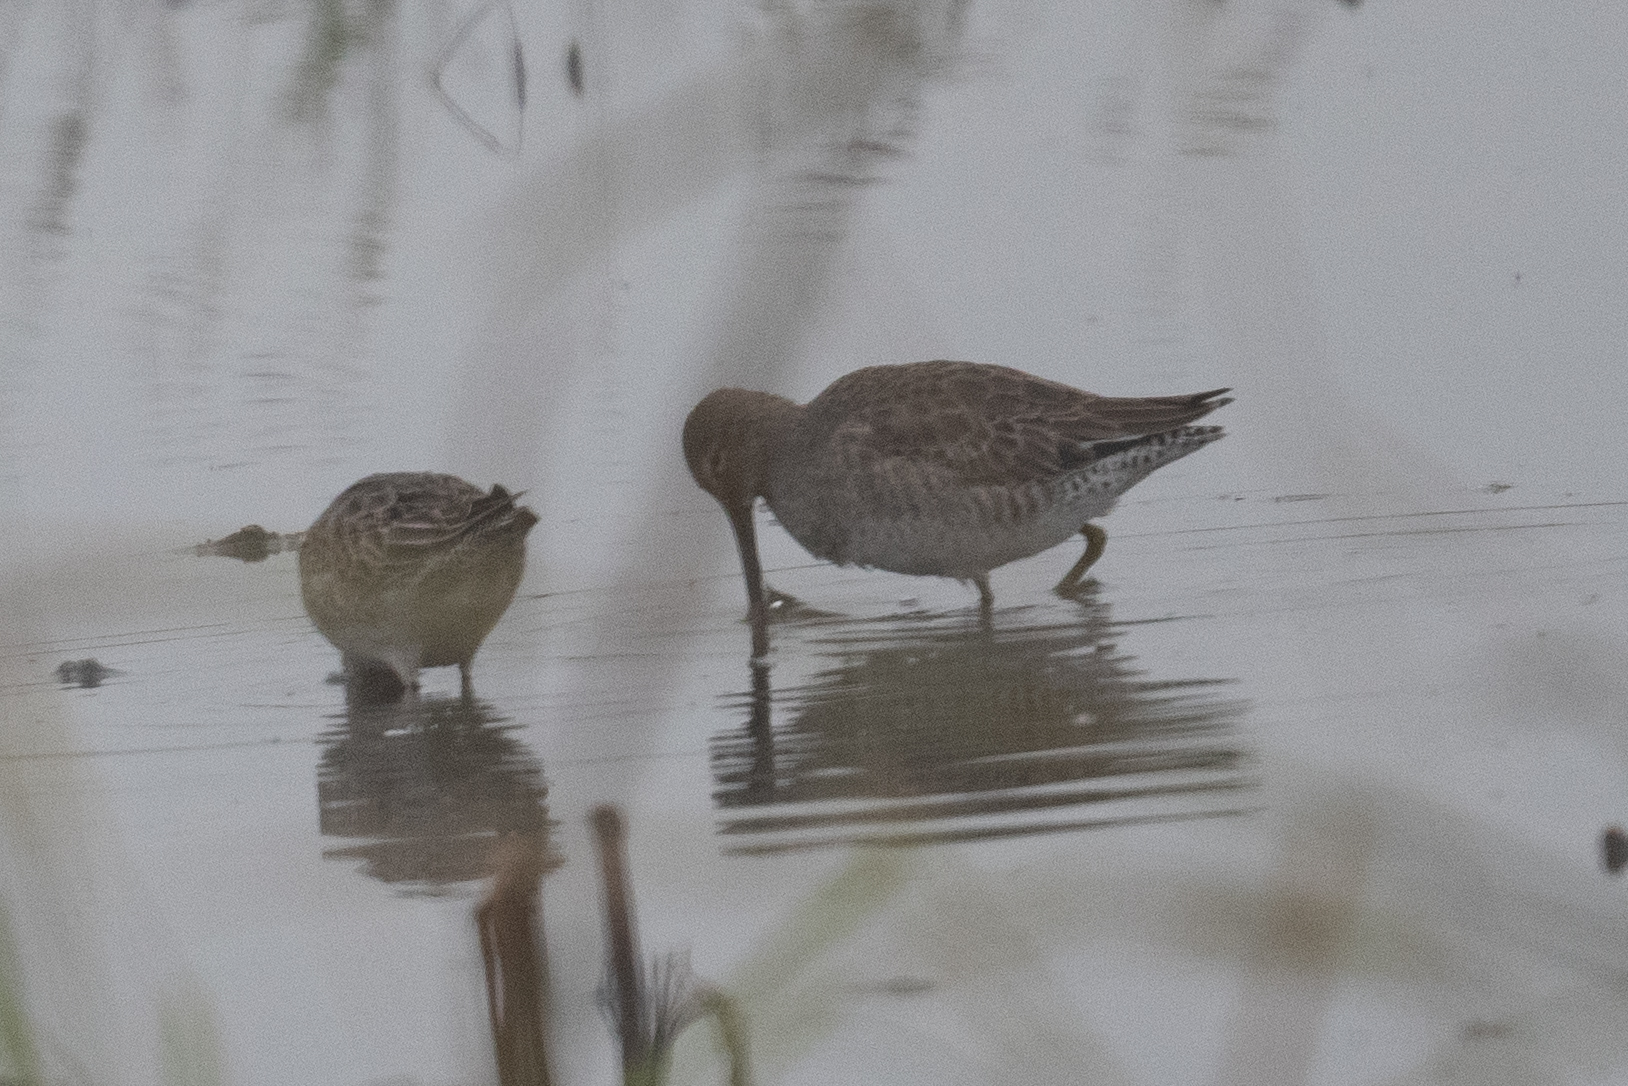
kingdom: Animalia
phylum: Chordata
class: Aves
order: Charadriiformes
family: Scolopacidae
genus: Limnodromus
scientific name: Limnodromus scolopaceus
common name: Long-billed dowitcher
